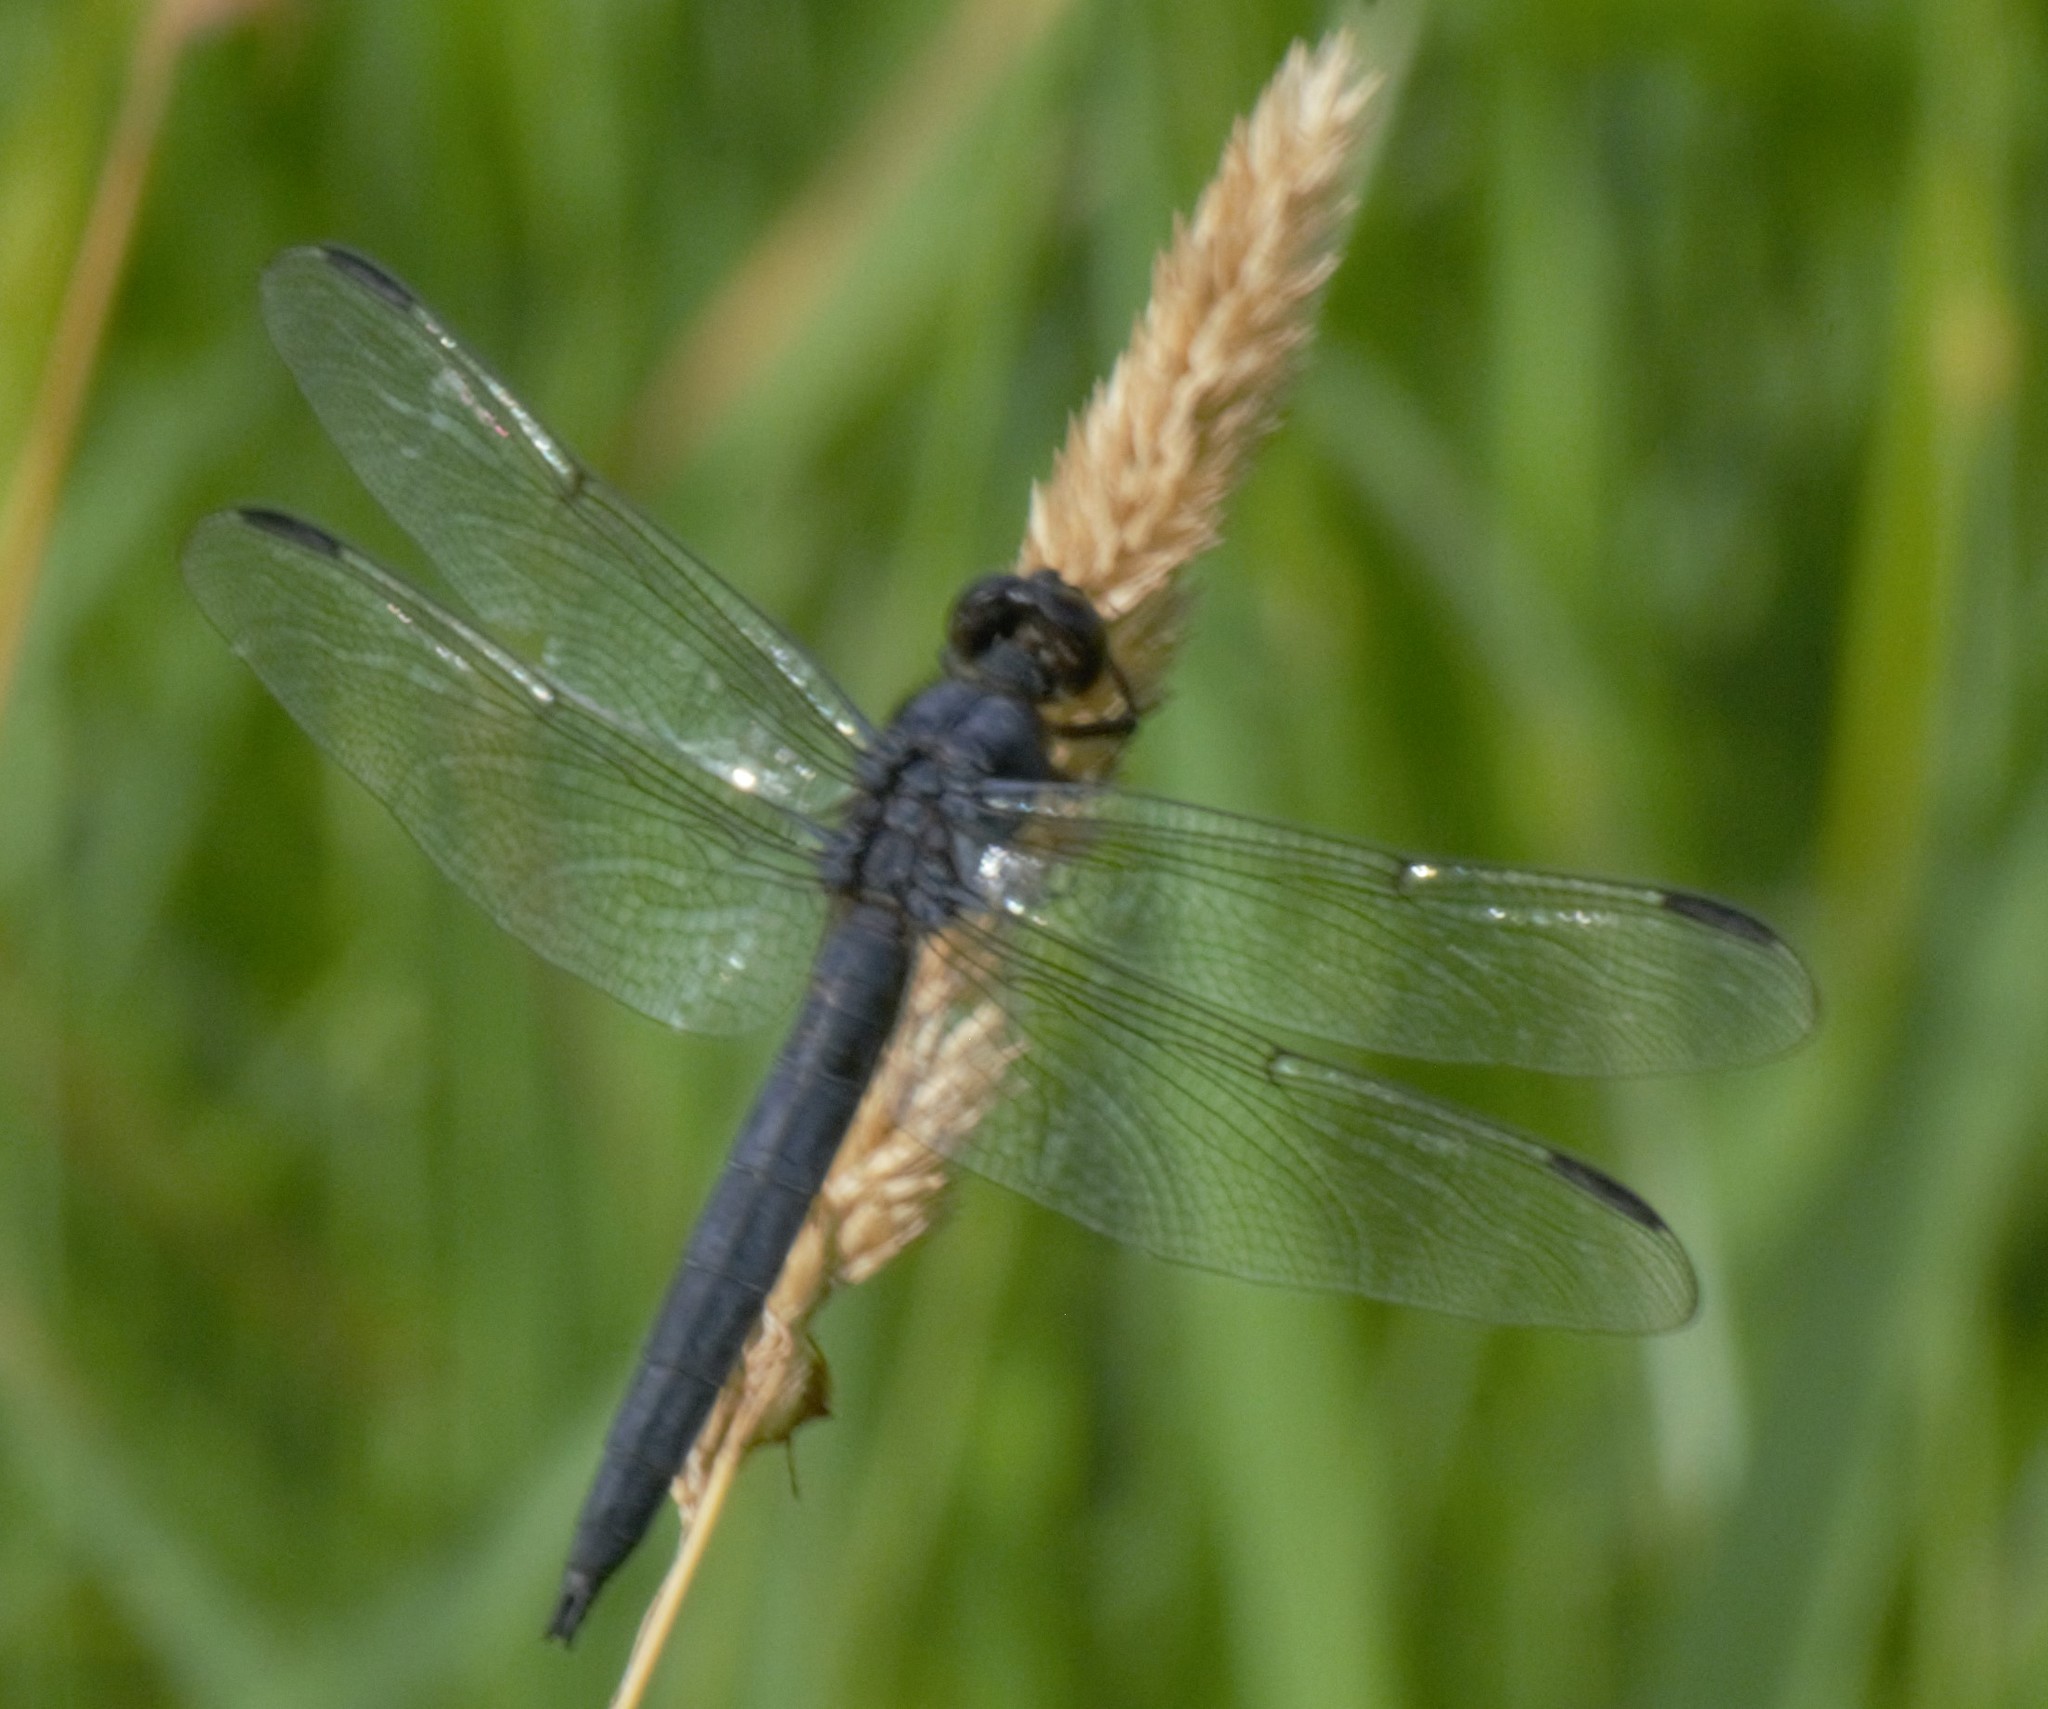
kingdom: Animalia
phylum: Arthropoda
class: Insecta
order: Odonata
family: Libellulidae
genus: Libellula
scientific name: Libellula incesta
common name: Slaty skimmer
